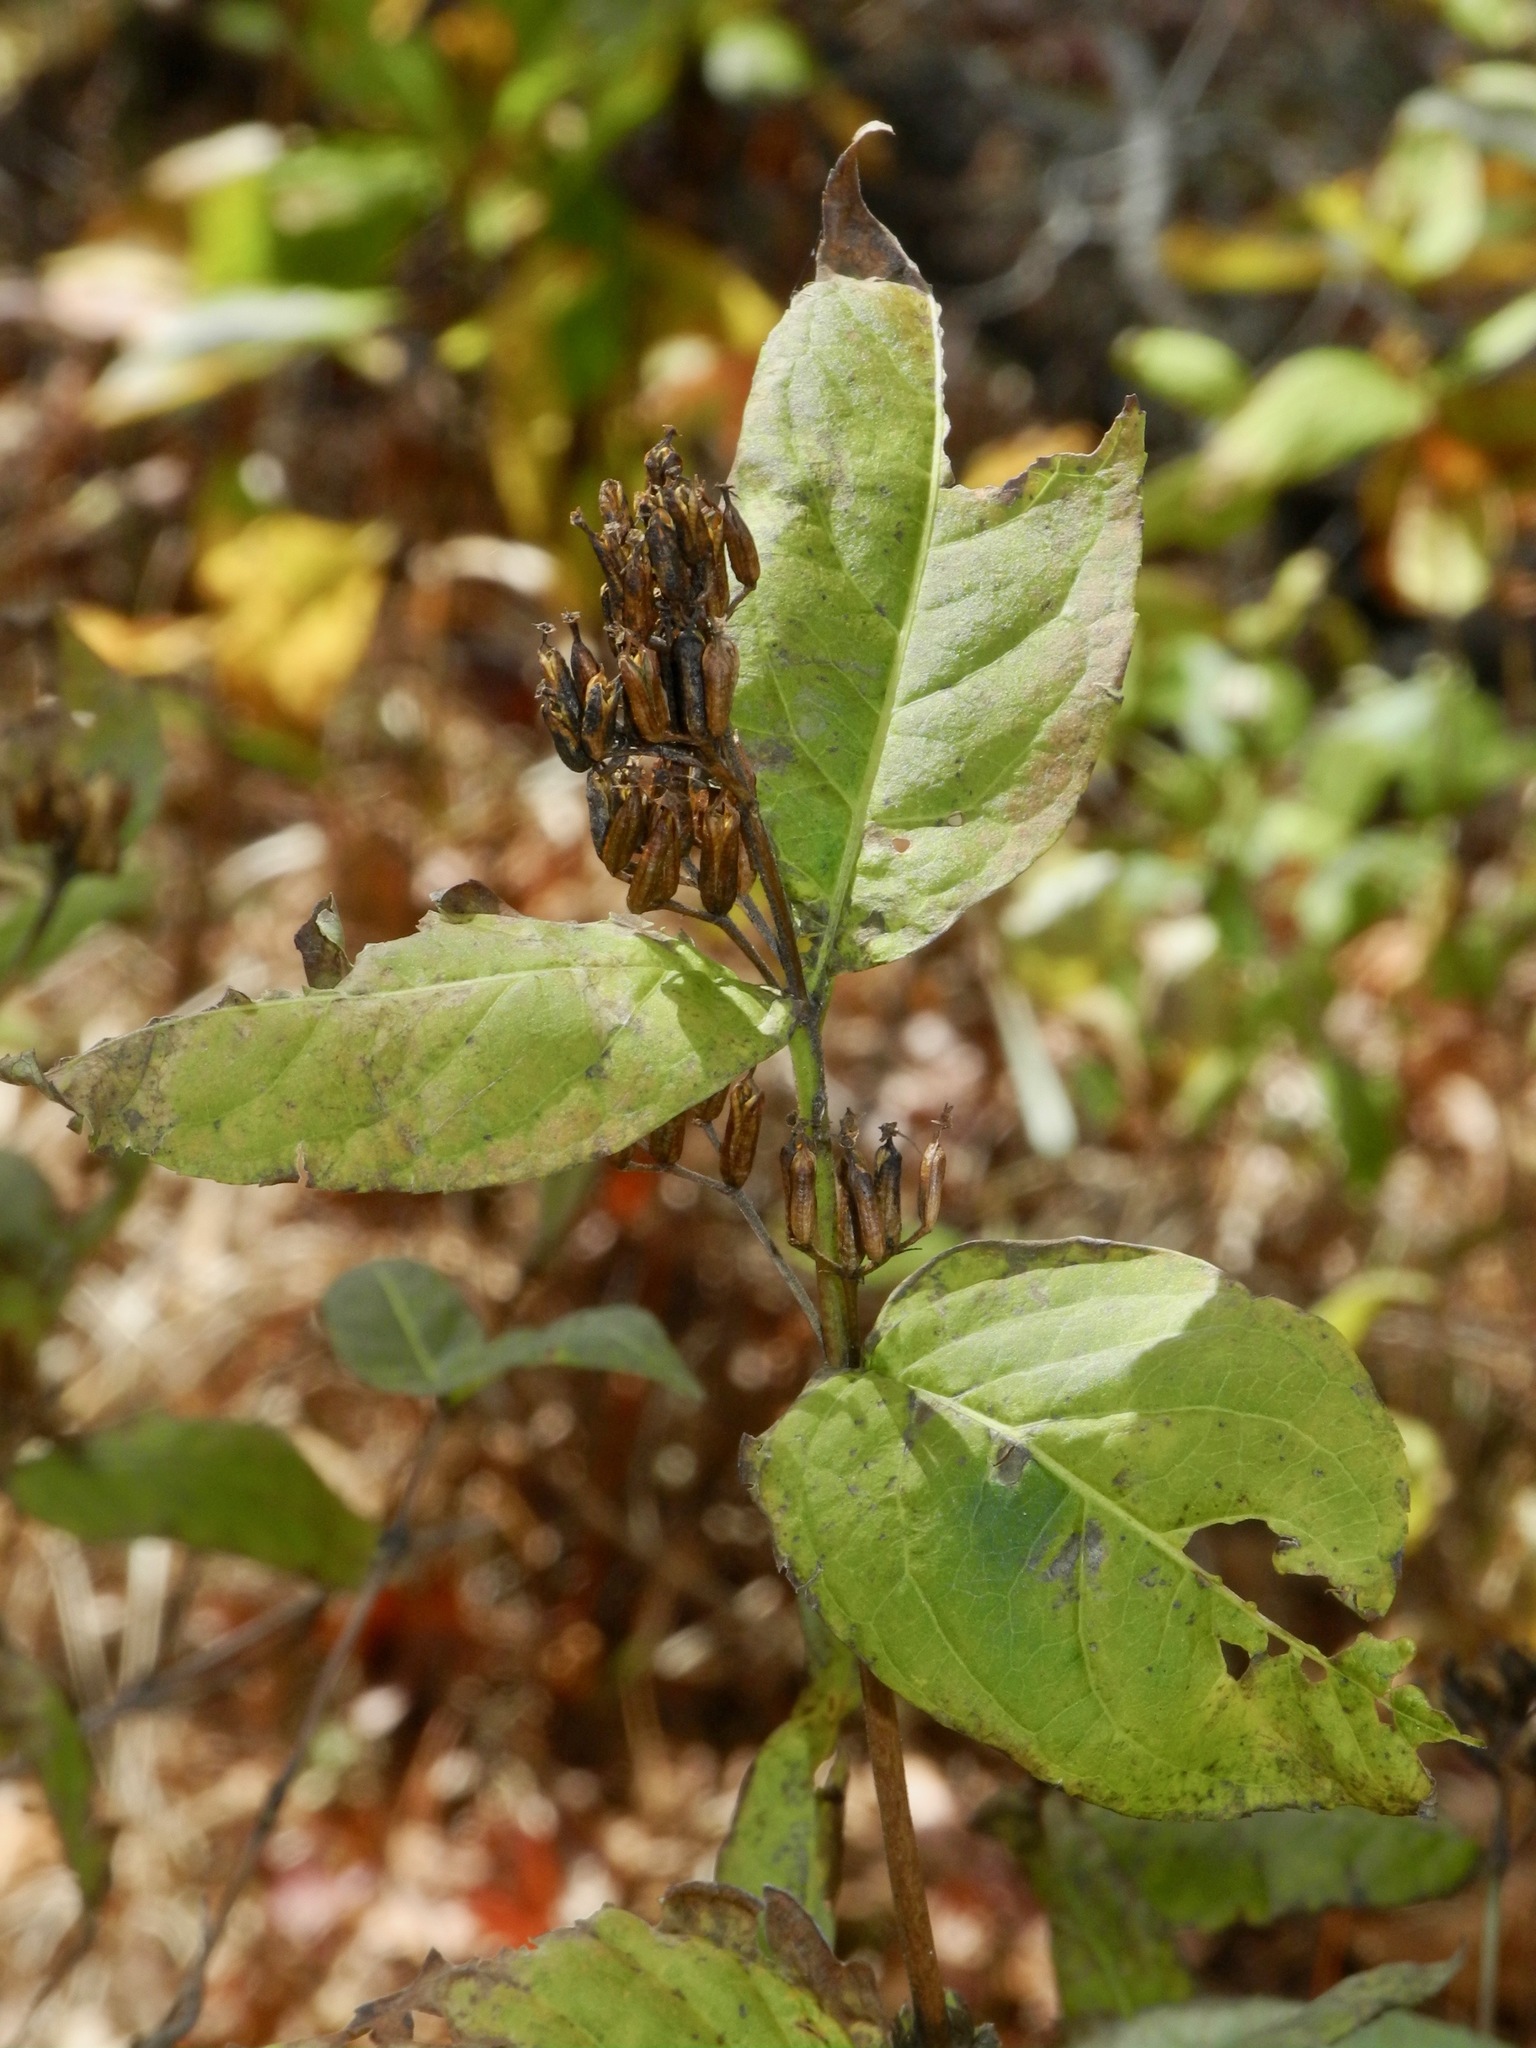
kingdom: Plantae
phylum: Tracheophyta
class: Magnoliopsida
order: Dipsacales
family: Caprifoliaceae
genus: Diervilla
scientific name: Diervilla sessilifolia
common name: Bush-honeysuckle
